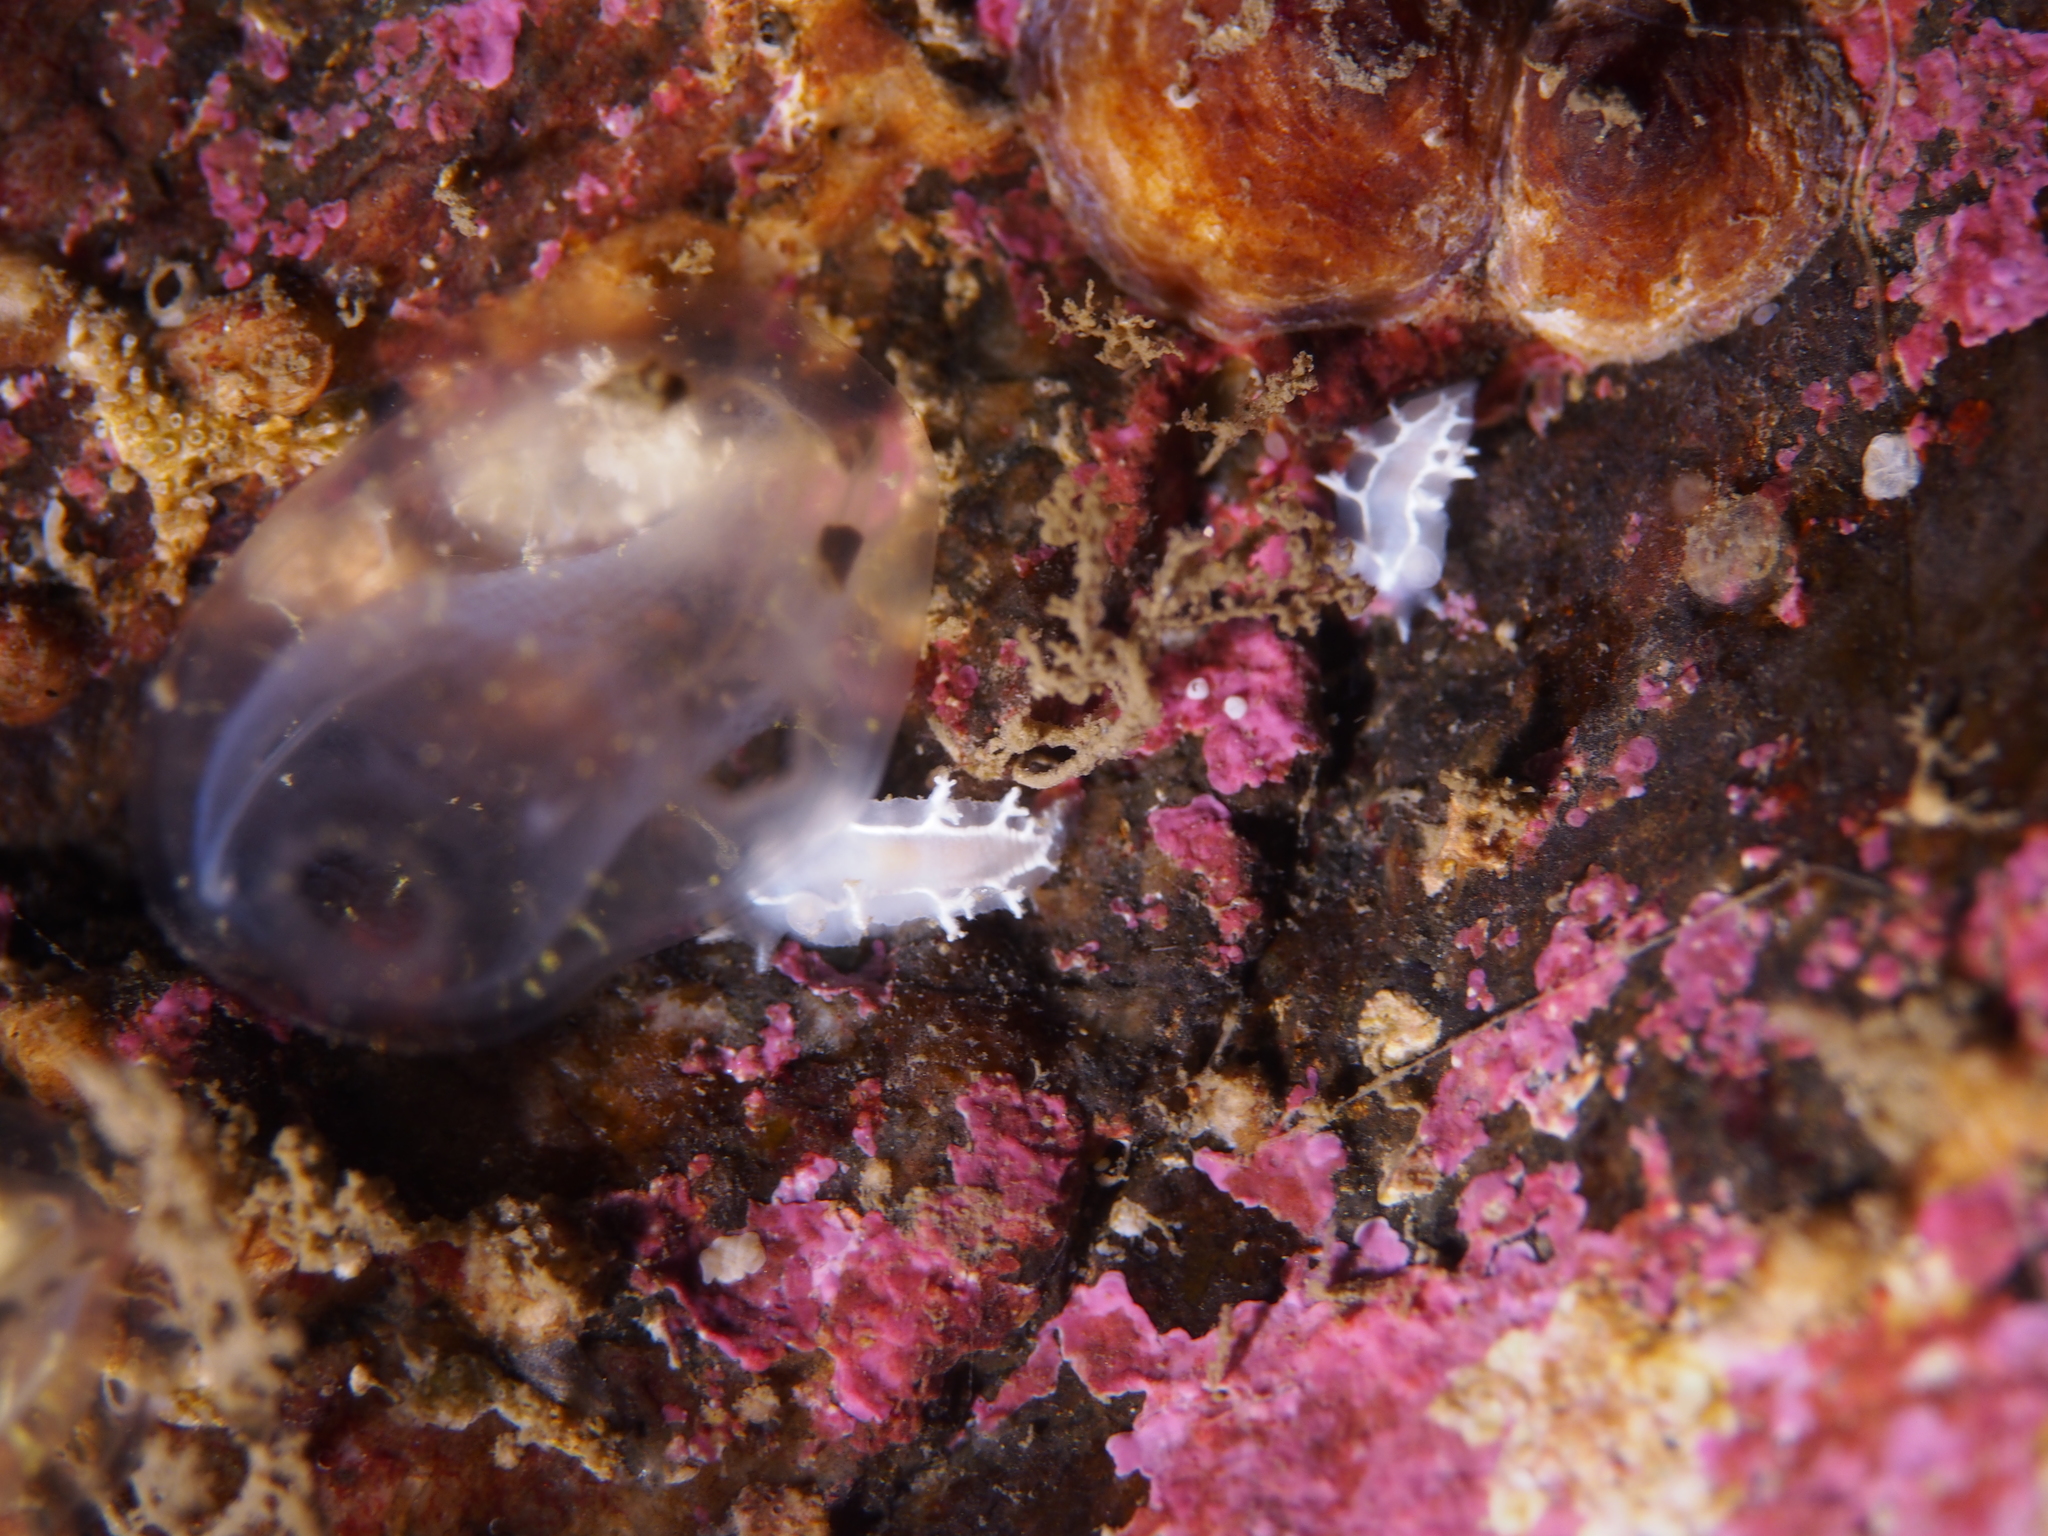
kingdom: Animalia
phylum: Mollusca
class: Gastropoda
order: Nudibranchia
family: Tritoniidae
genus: Duvaucelia
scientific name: Duvaucelia lineata
